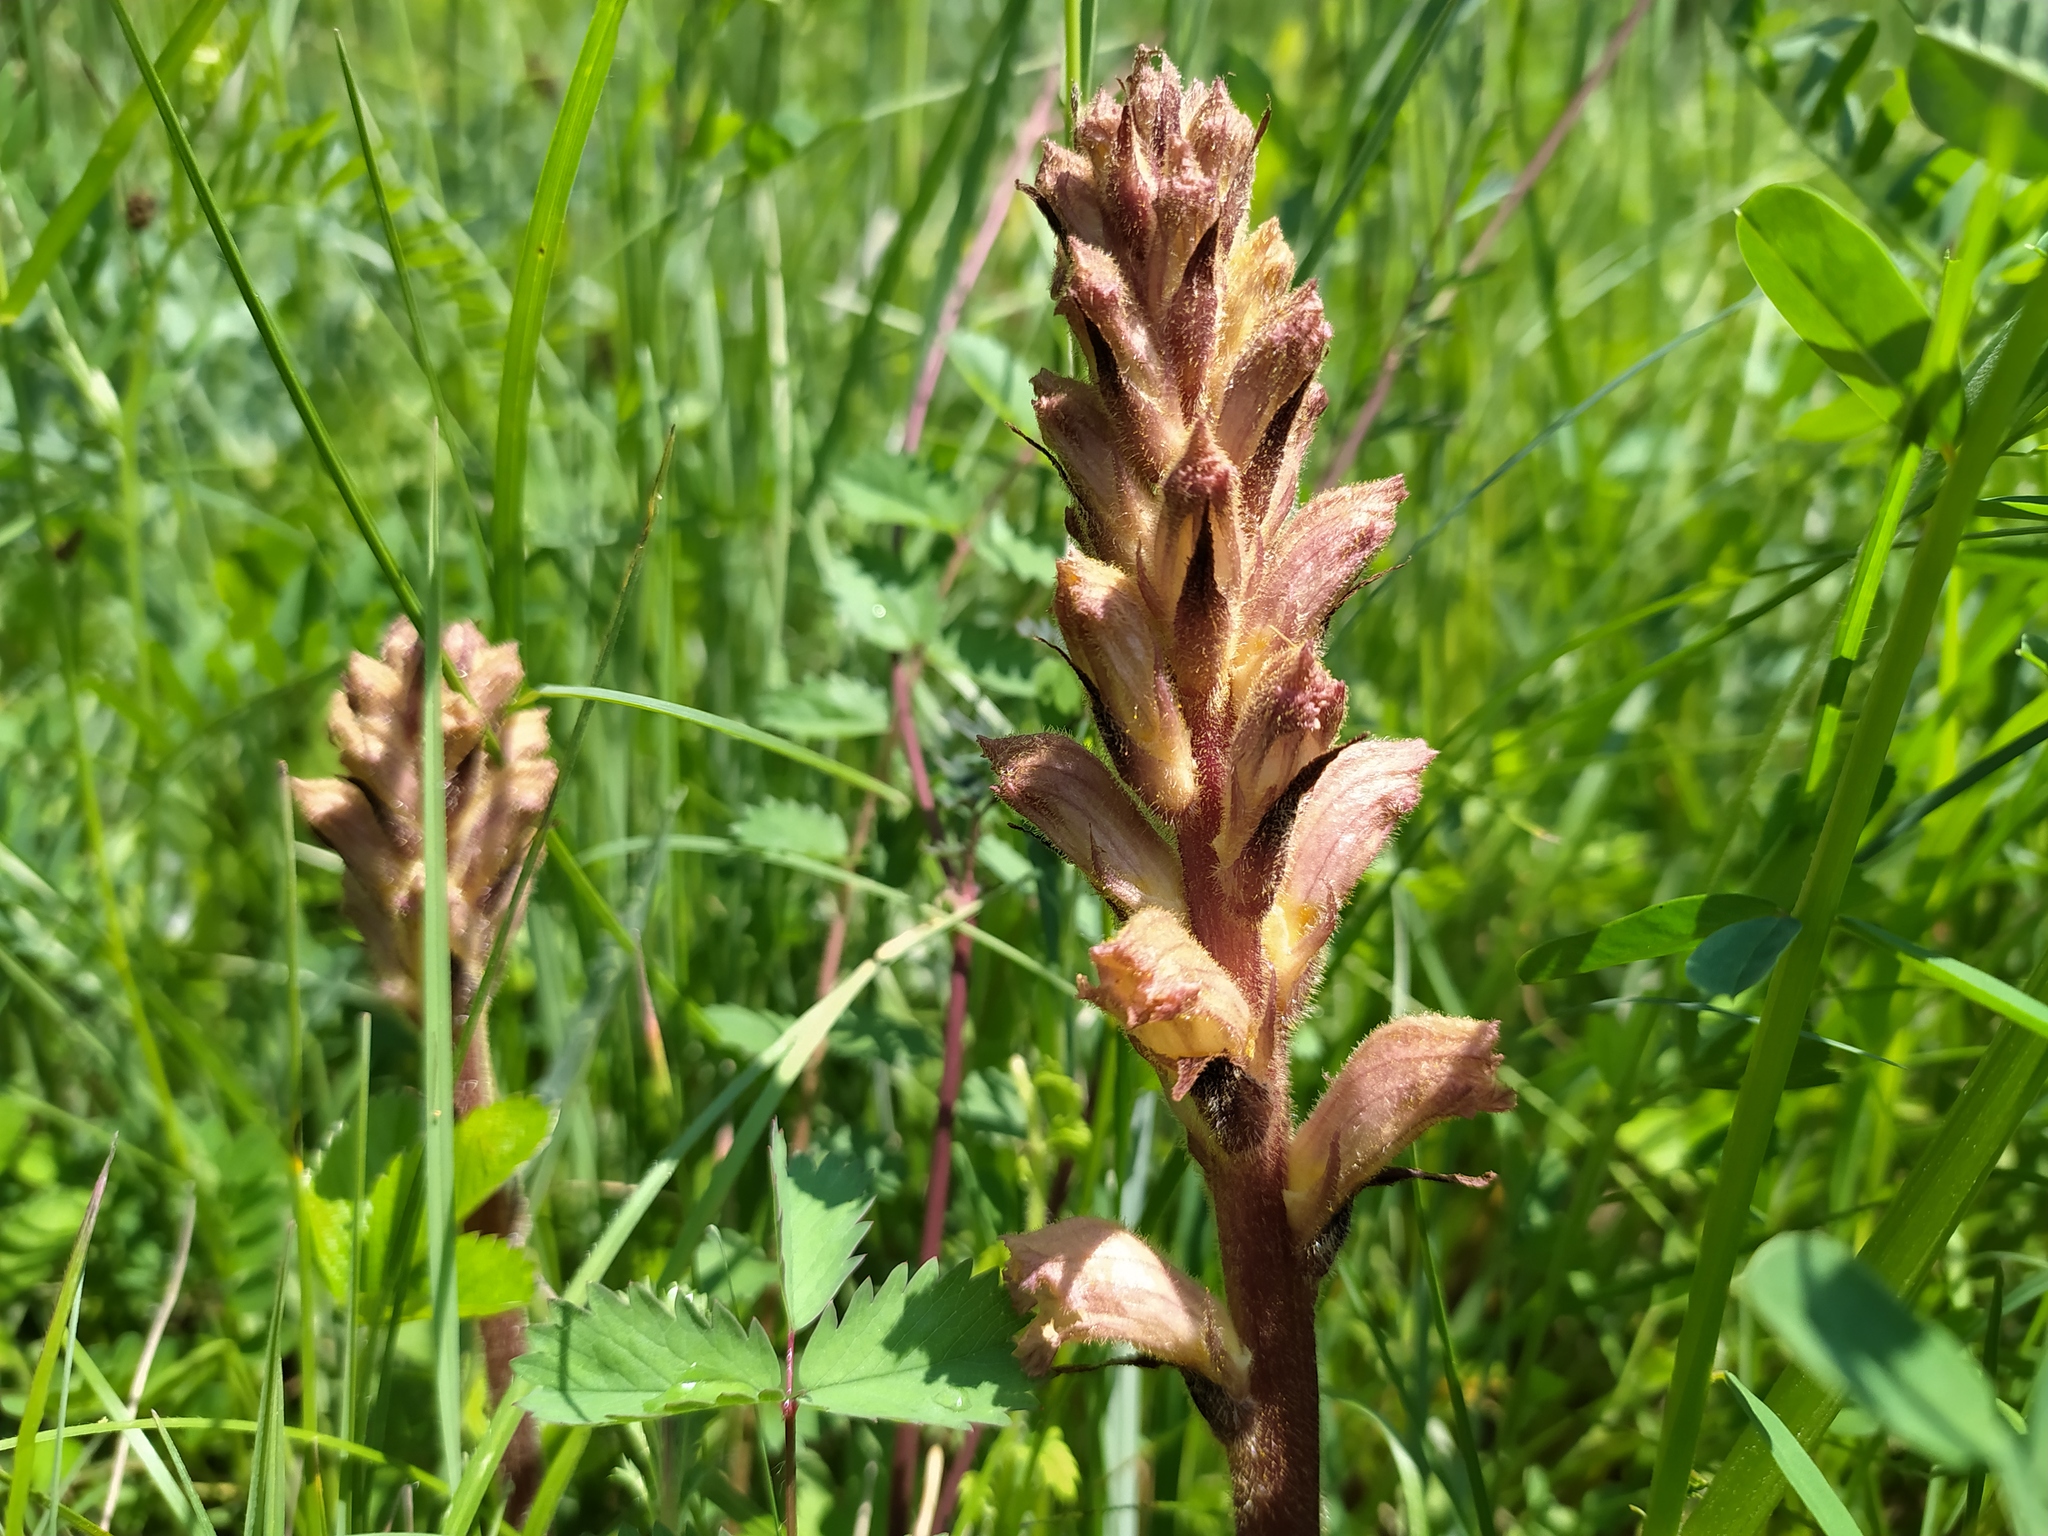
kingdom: Plantae
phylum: Tracheophyta
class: Magnoliopsida
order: Lamiales
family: Orobanchaceae
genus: Orobanche
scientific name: Orobanche lutea
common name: Yellow broomrape
